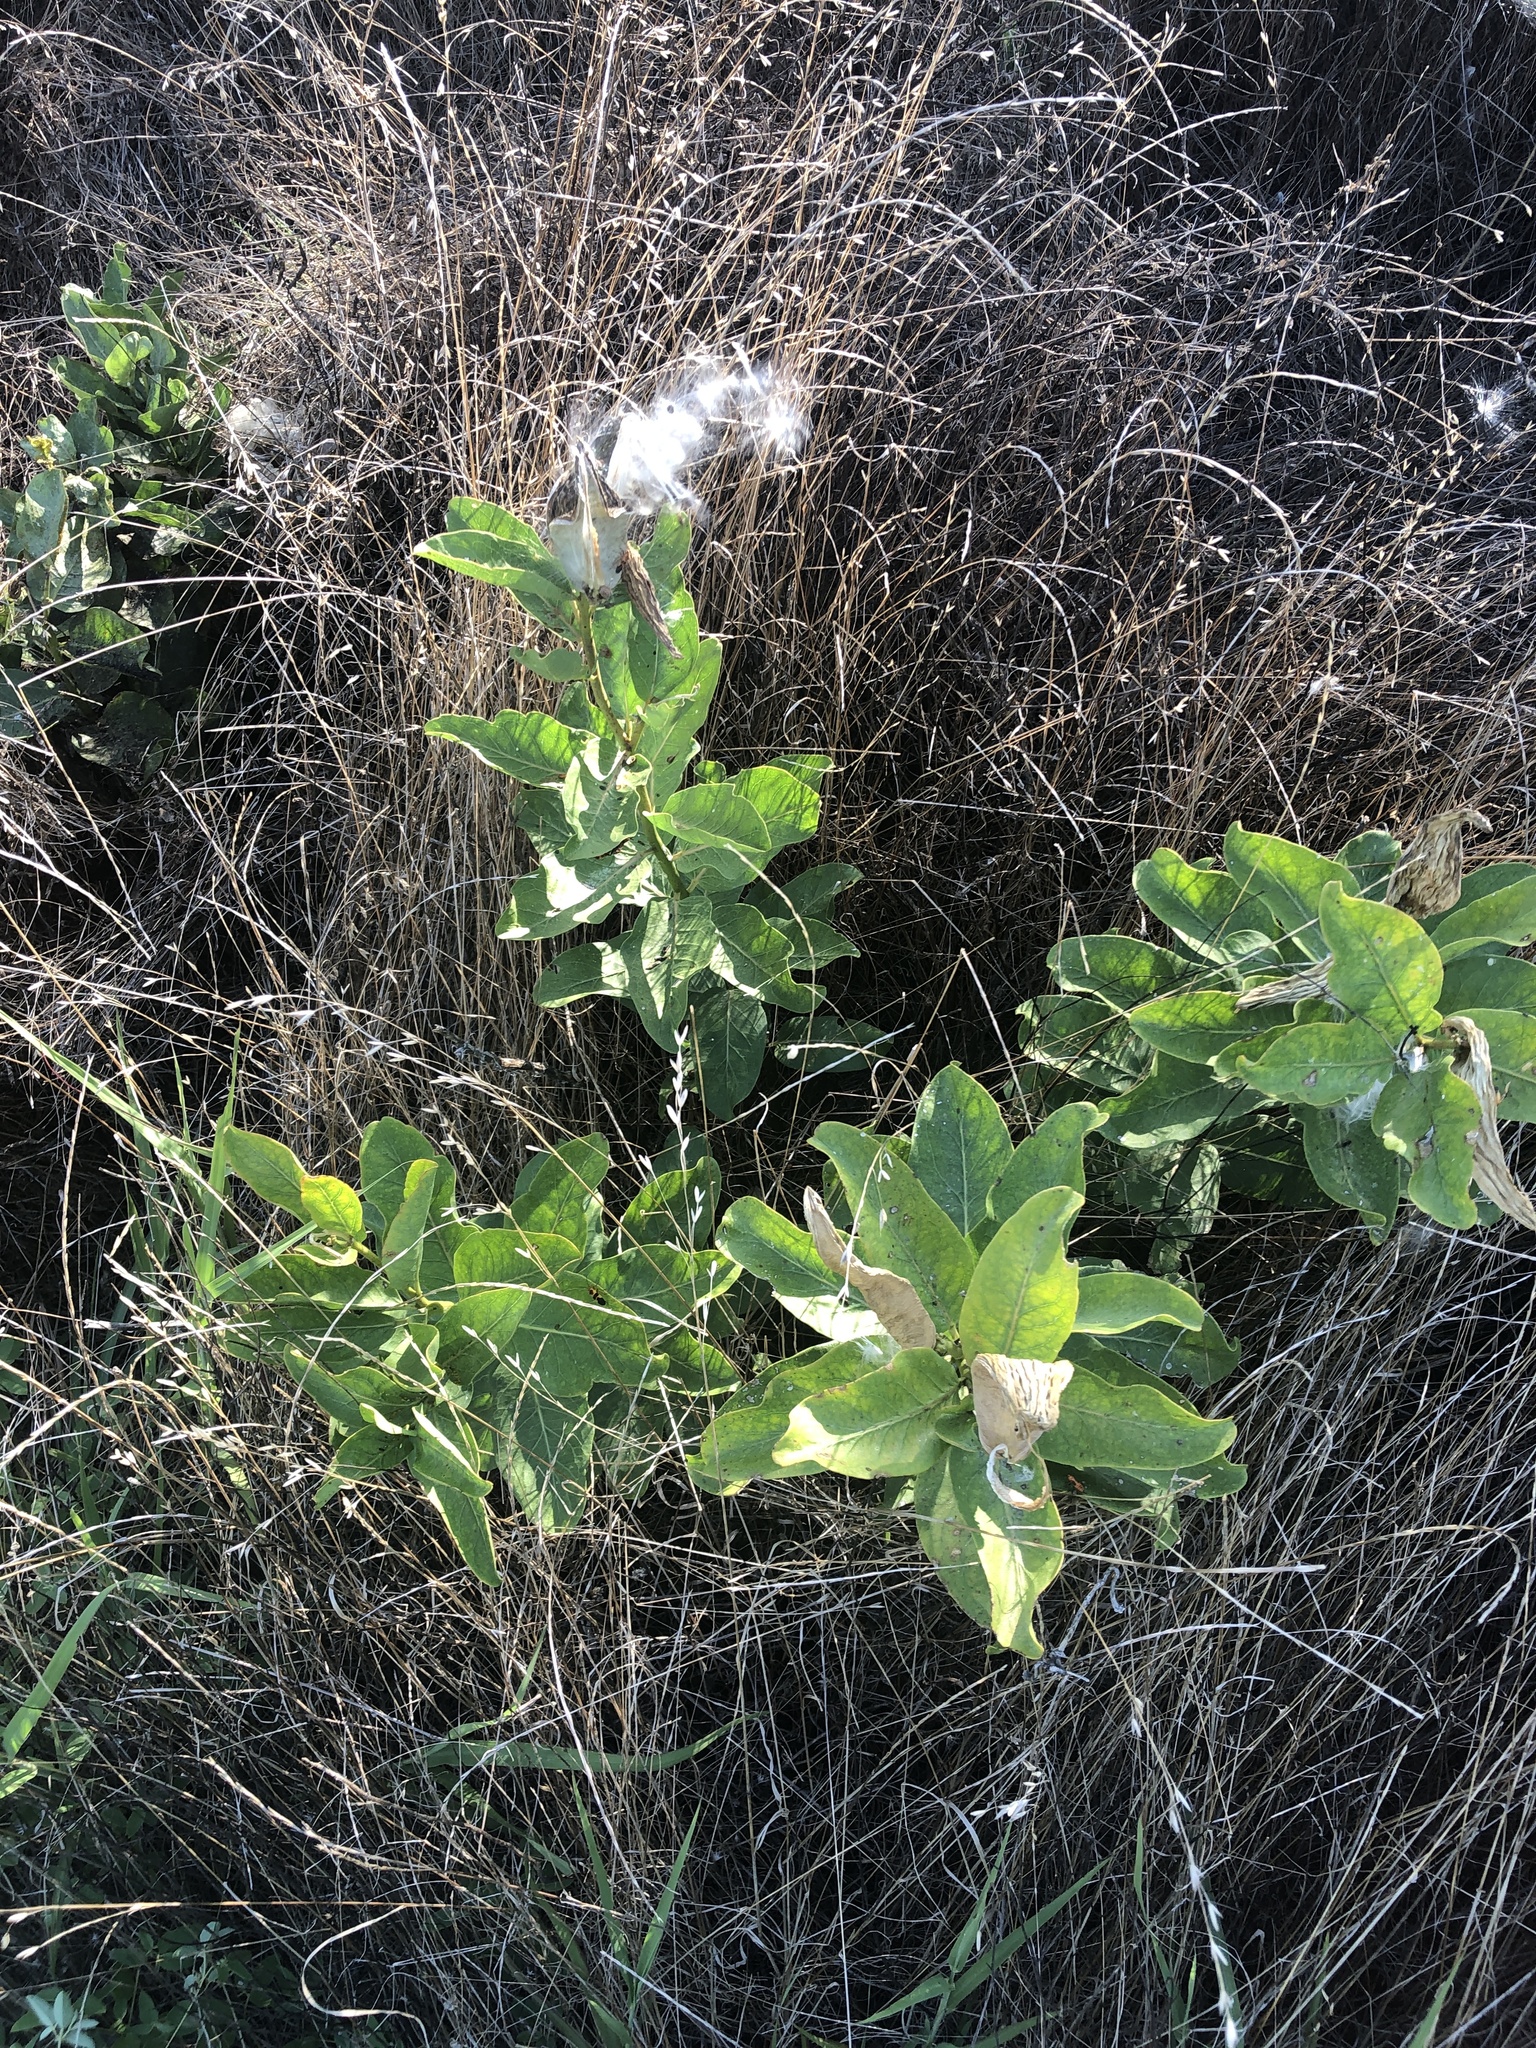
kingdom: Plantae
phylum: Tracheophyta
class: Magnoliopsida
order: Gentianales
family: Apocynaceae
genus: Asclepias
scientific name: Asclepias viridis
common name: Antelope-horns
